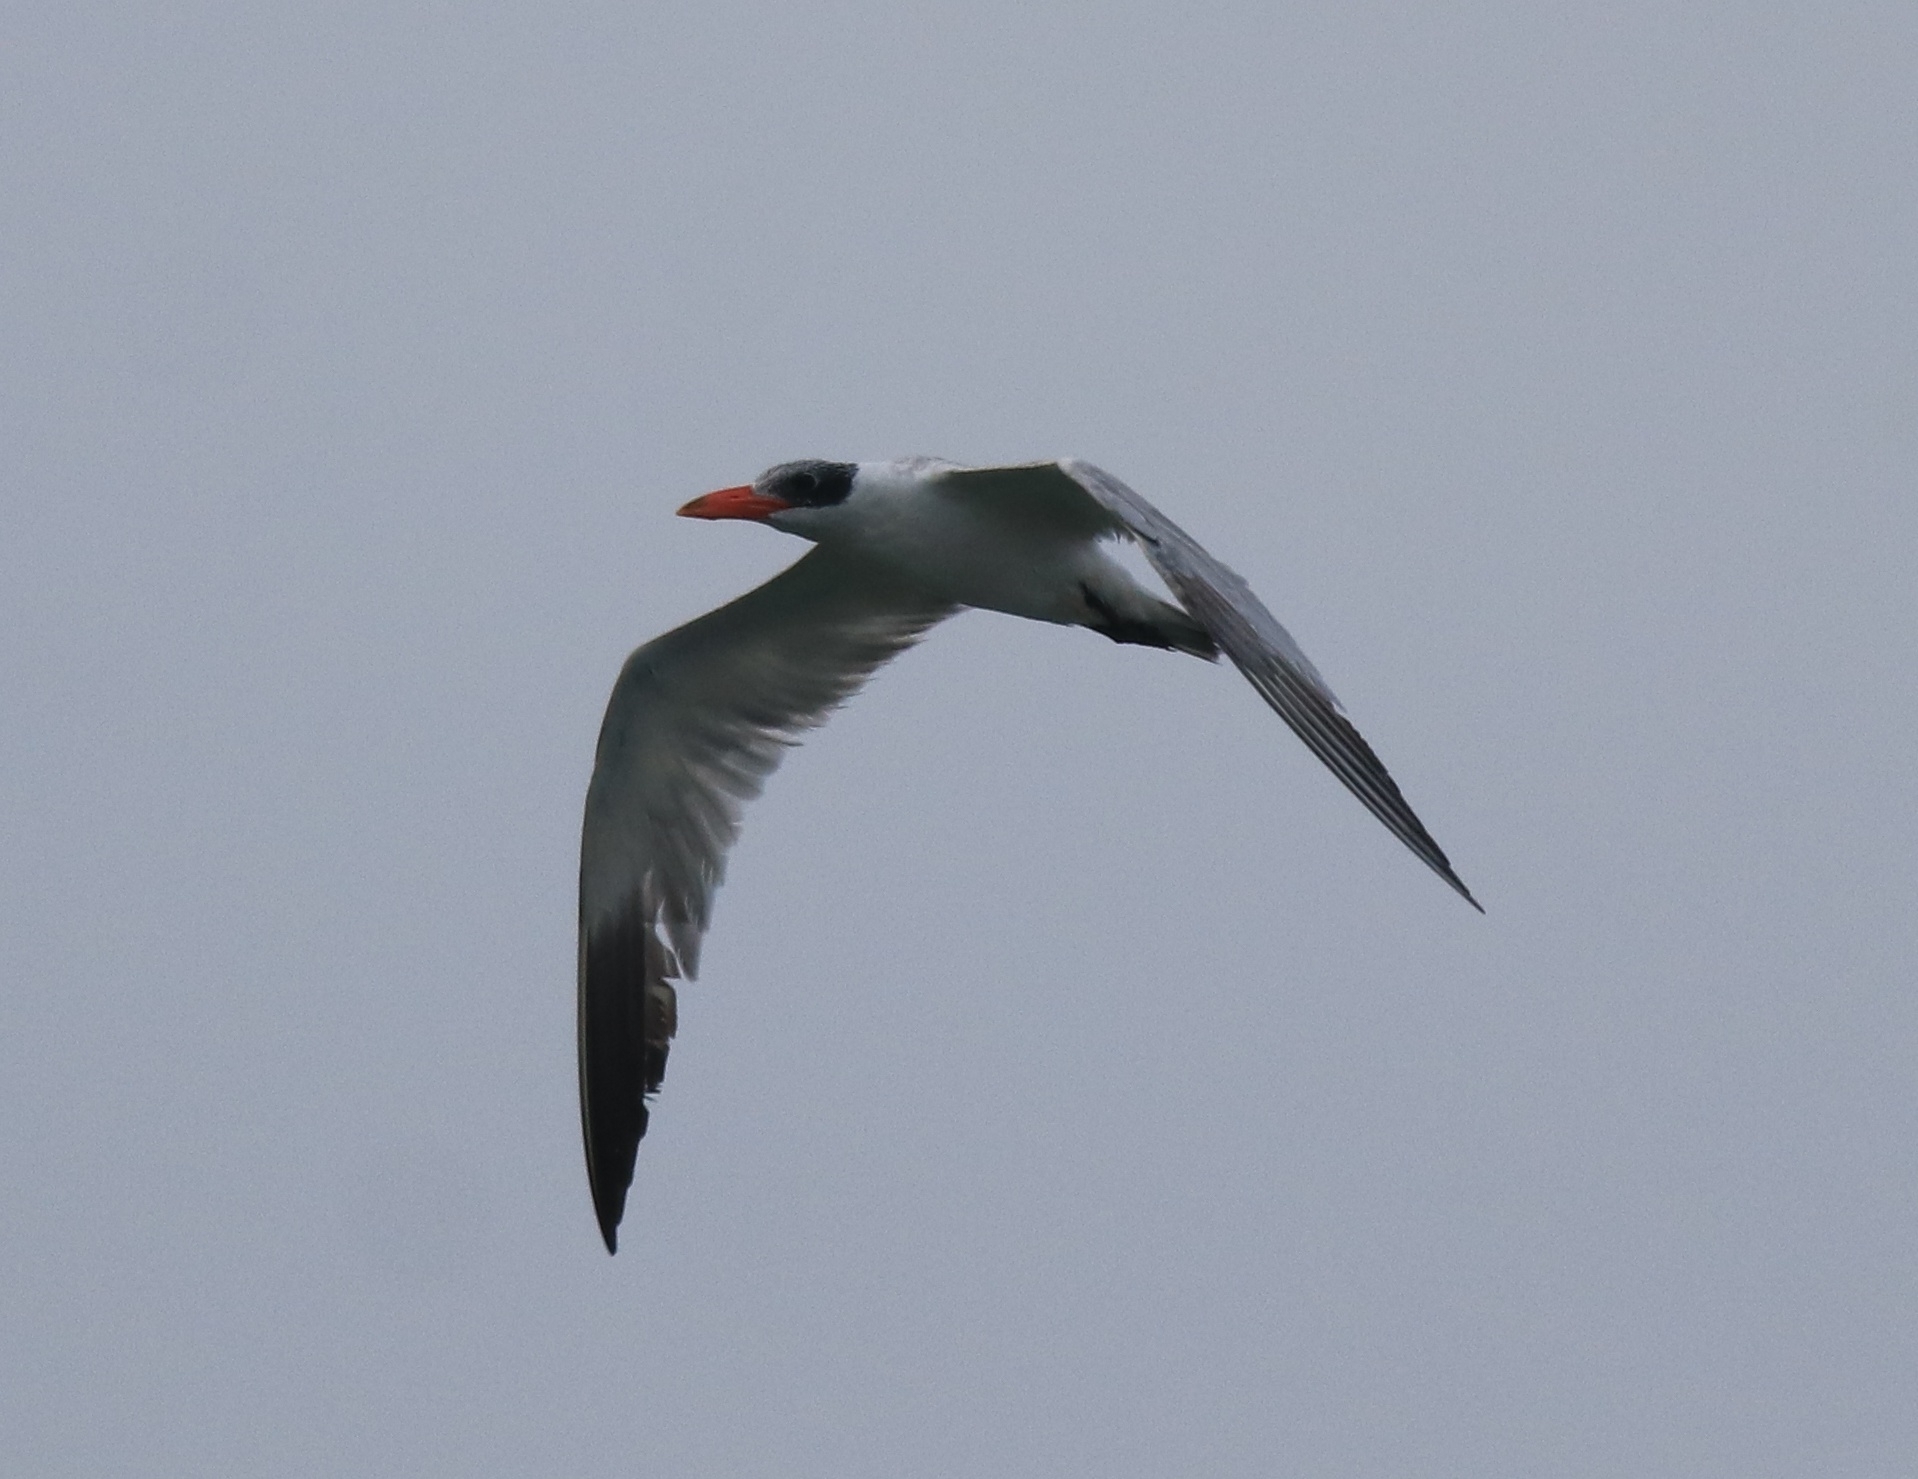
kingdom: Animalia
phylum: Chordata
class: Aves
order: Charadriiformes
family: Laridae
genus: Hydroprogne
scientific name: Hydroprogne caspia
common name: Caspian tern
